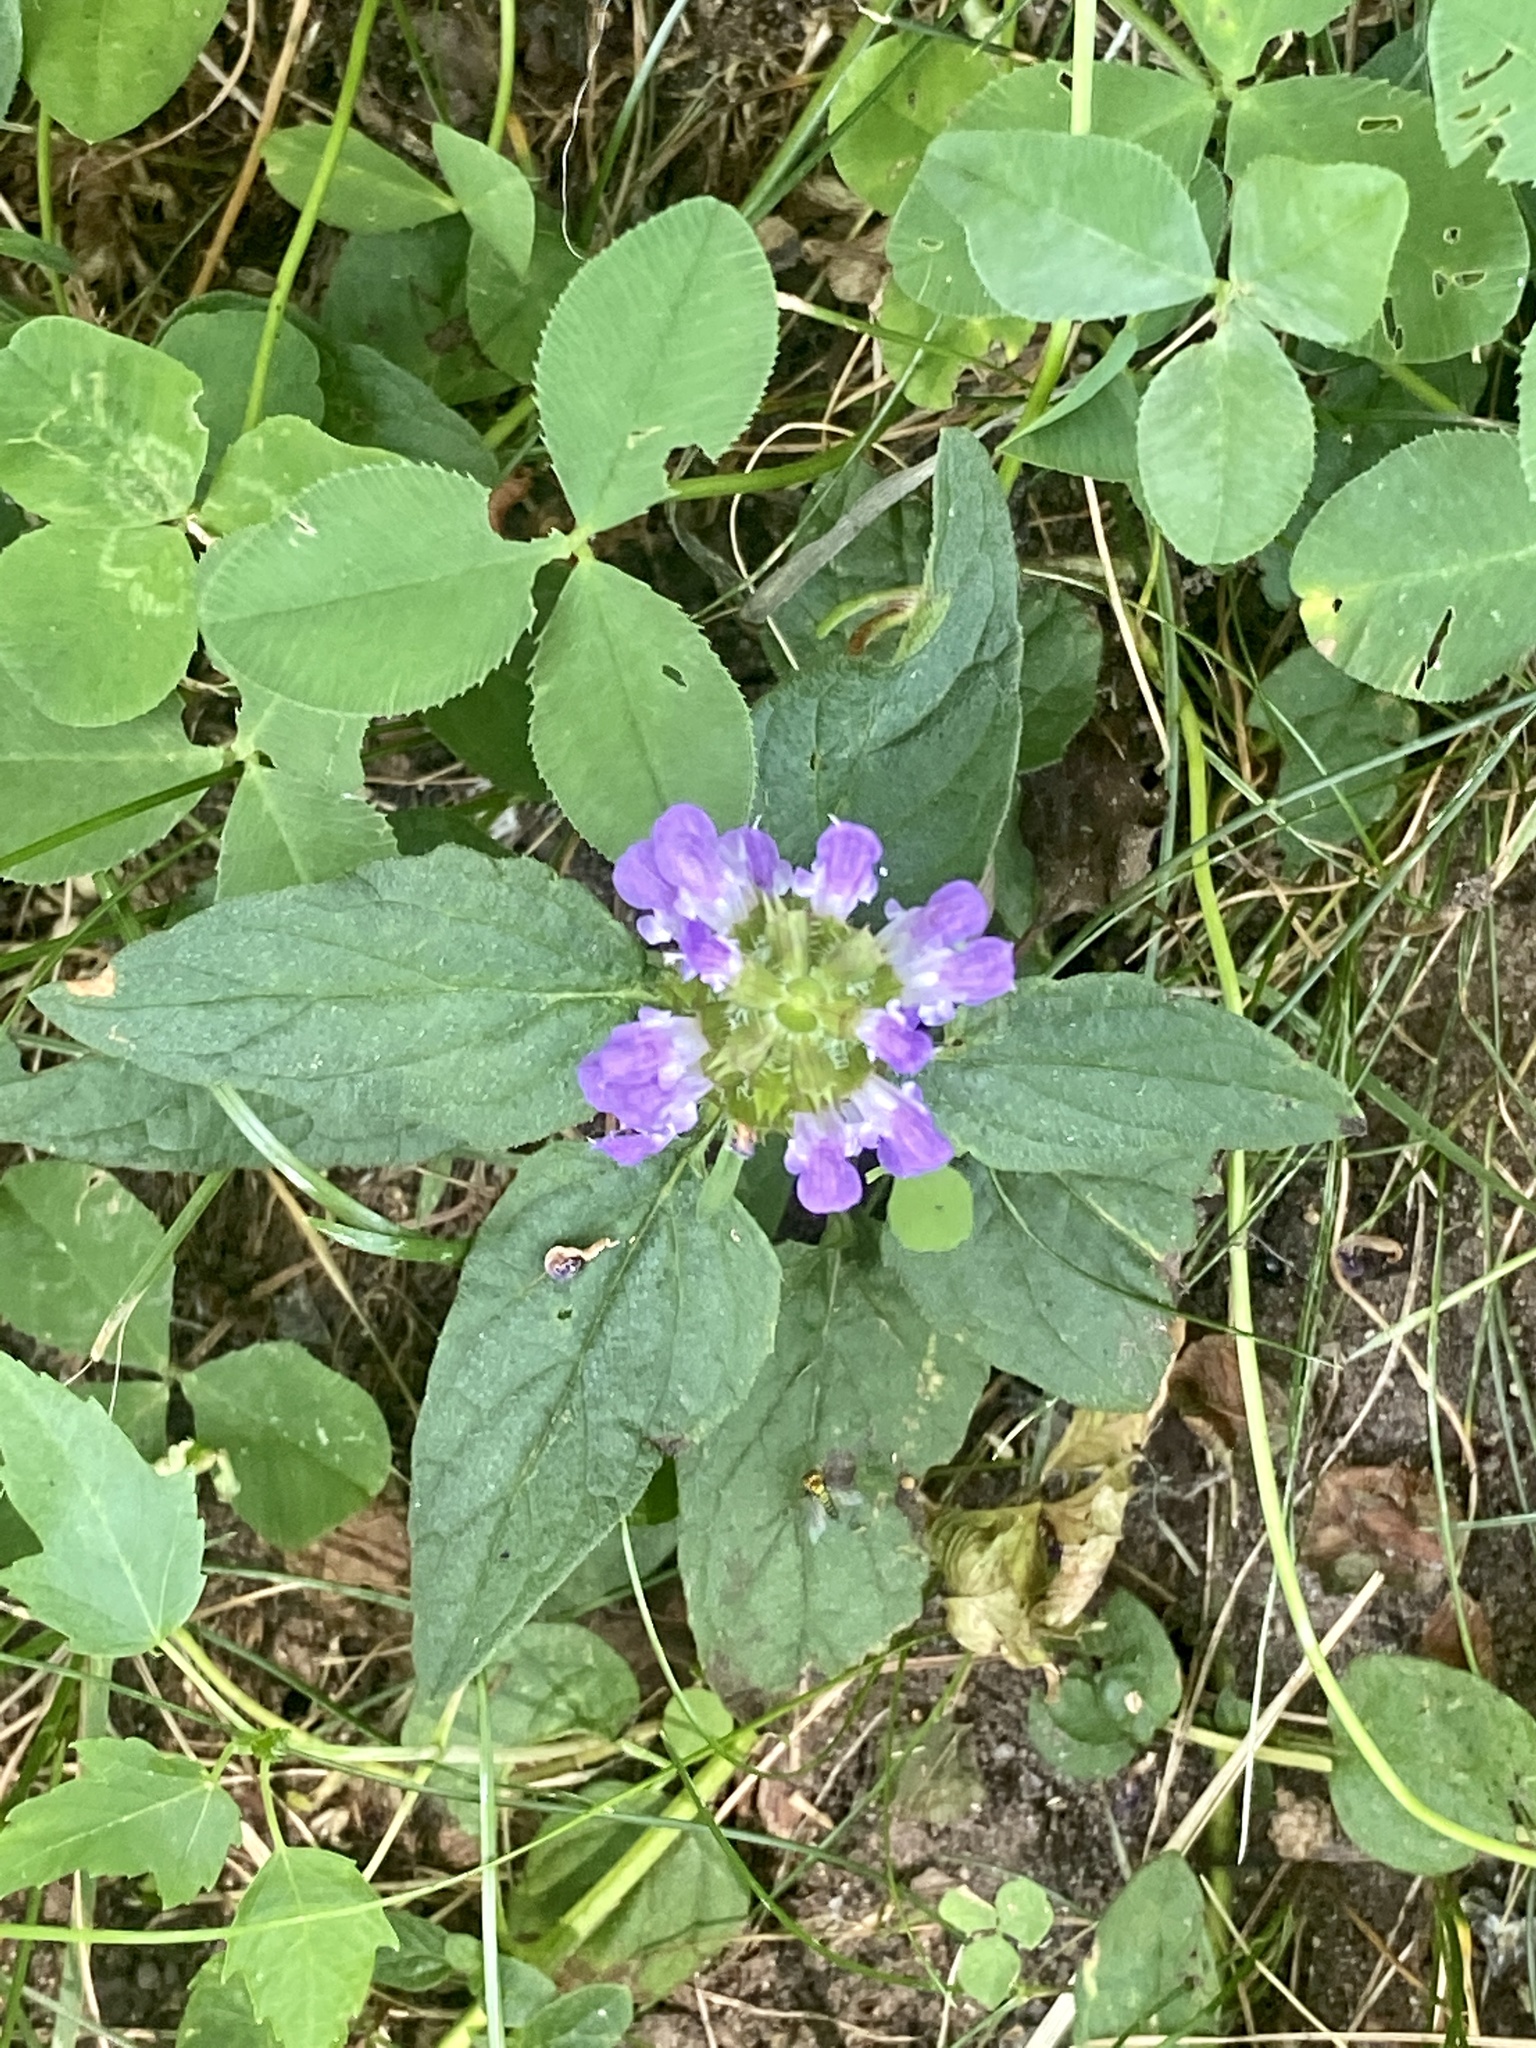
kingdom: Plantae
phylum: Tracheophyta
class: Magnoliopsida
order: Lamiales
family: Lamiaceae
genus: Prunella
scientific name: Prunella vulgaris
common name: Heal-all
